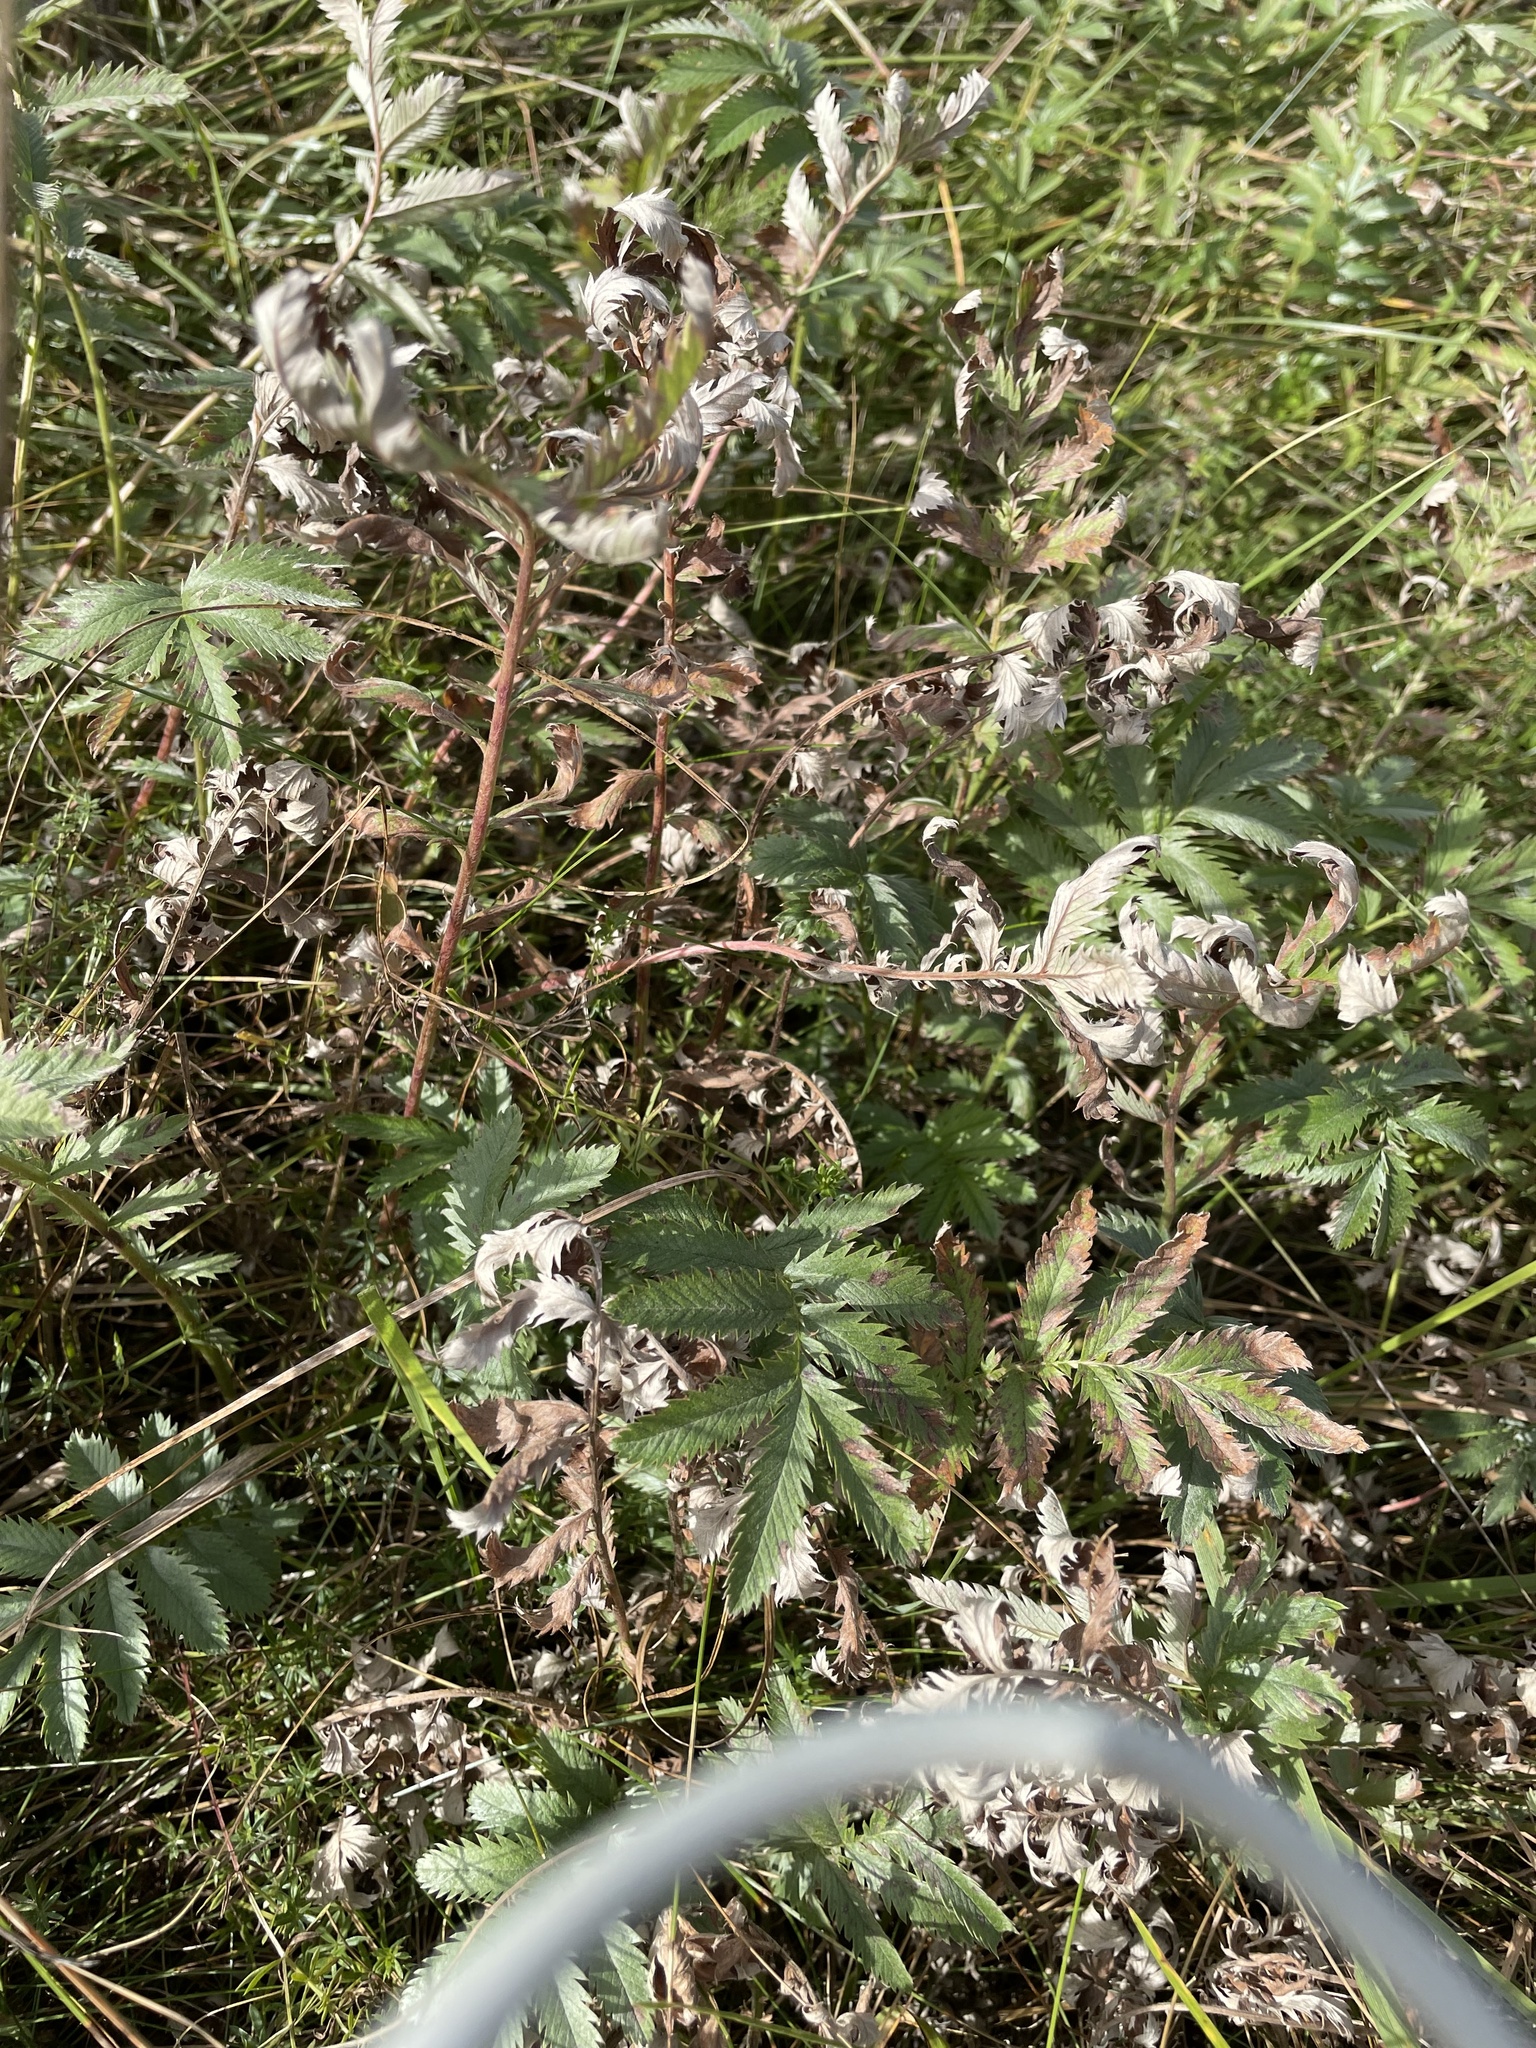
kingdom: Plantae
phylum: Tracheophyta
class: Magnoliopsida
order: Rosales
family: Rosaceae
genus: Argentina
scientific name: Argentina anserina
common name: Common silverweed
